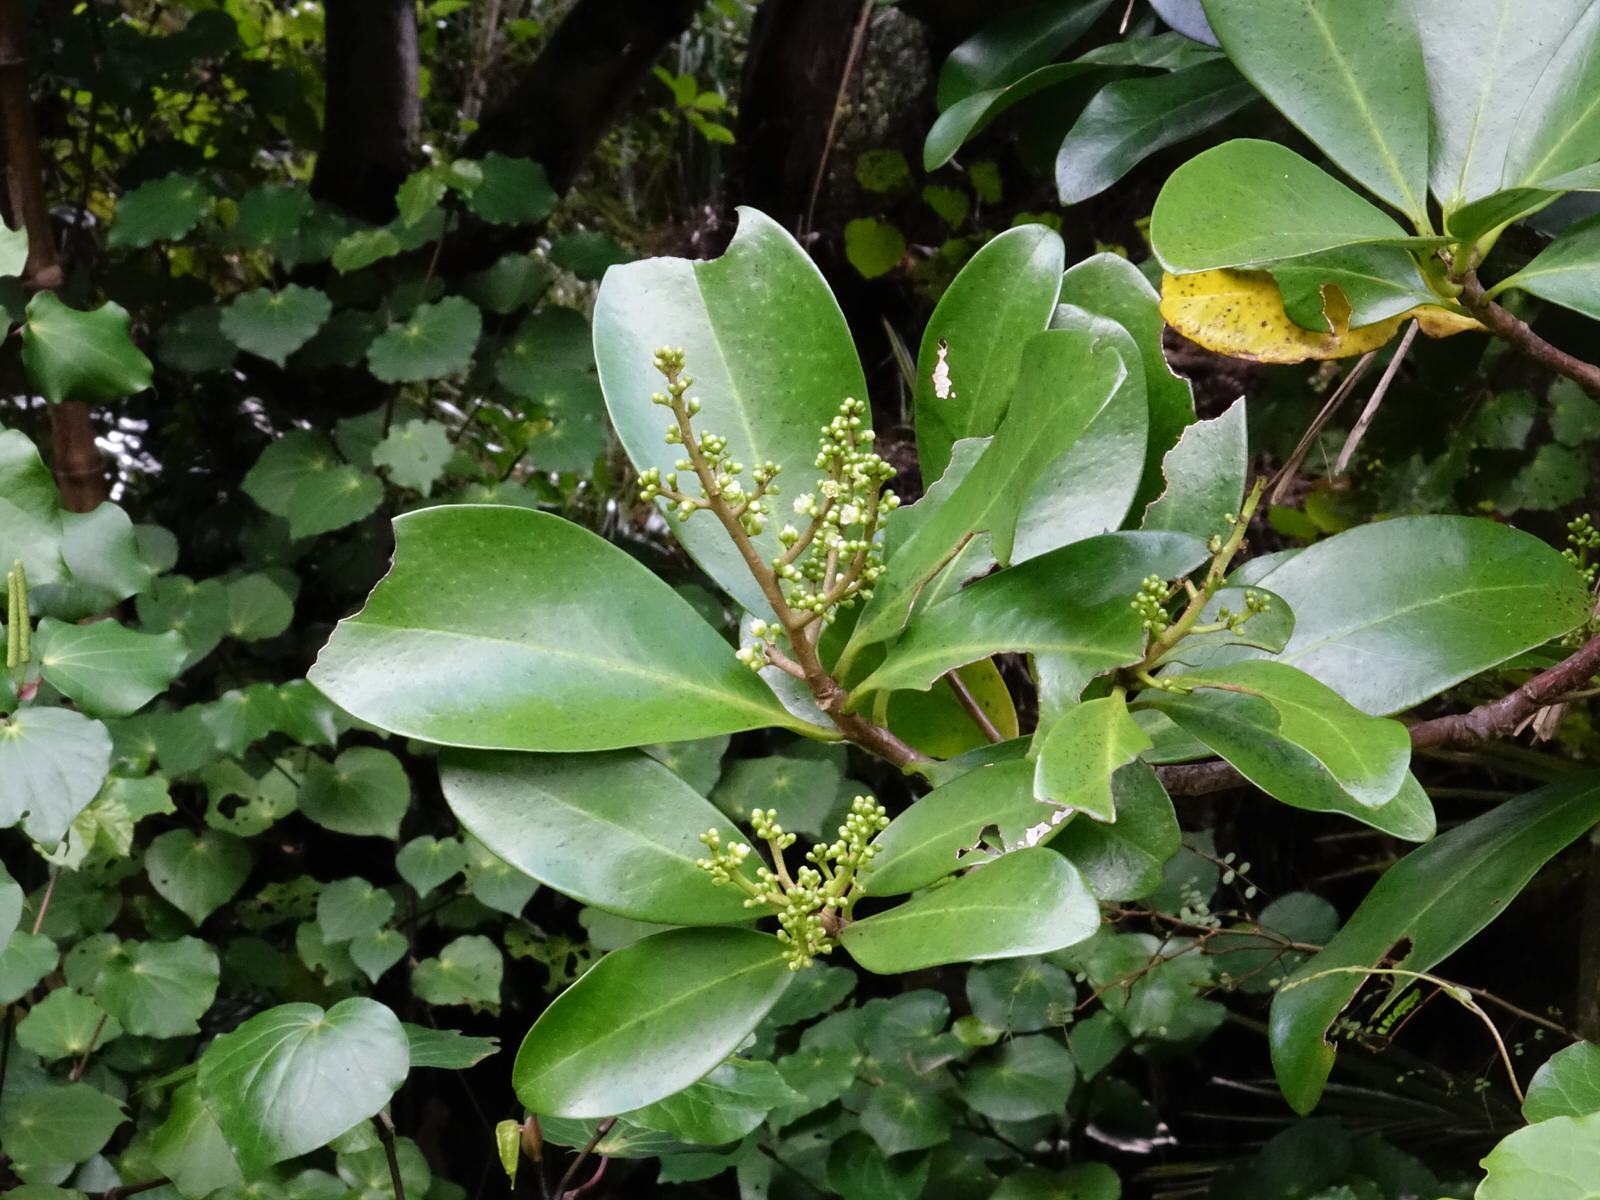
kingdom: Plantae
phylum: Tracheophyta
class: Magnoliopsida
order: Cucurbitales
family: Corynocarpaceae
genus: Corynocarpus
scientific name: Corynocarpus laevigatus
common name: New zealand laurel
